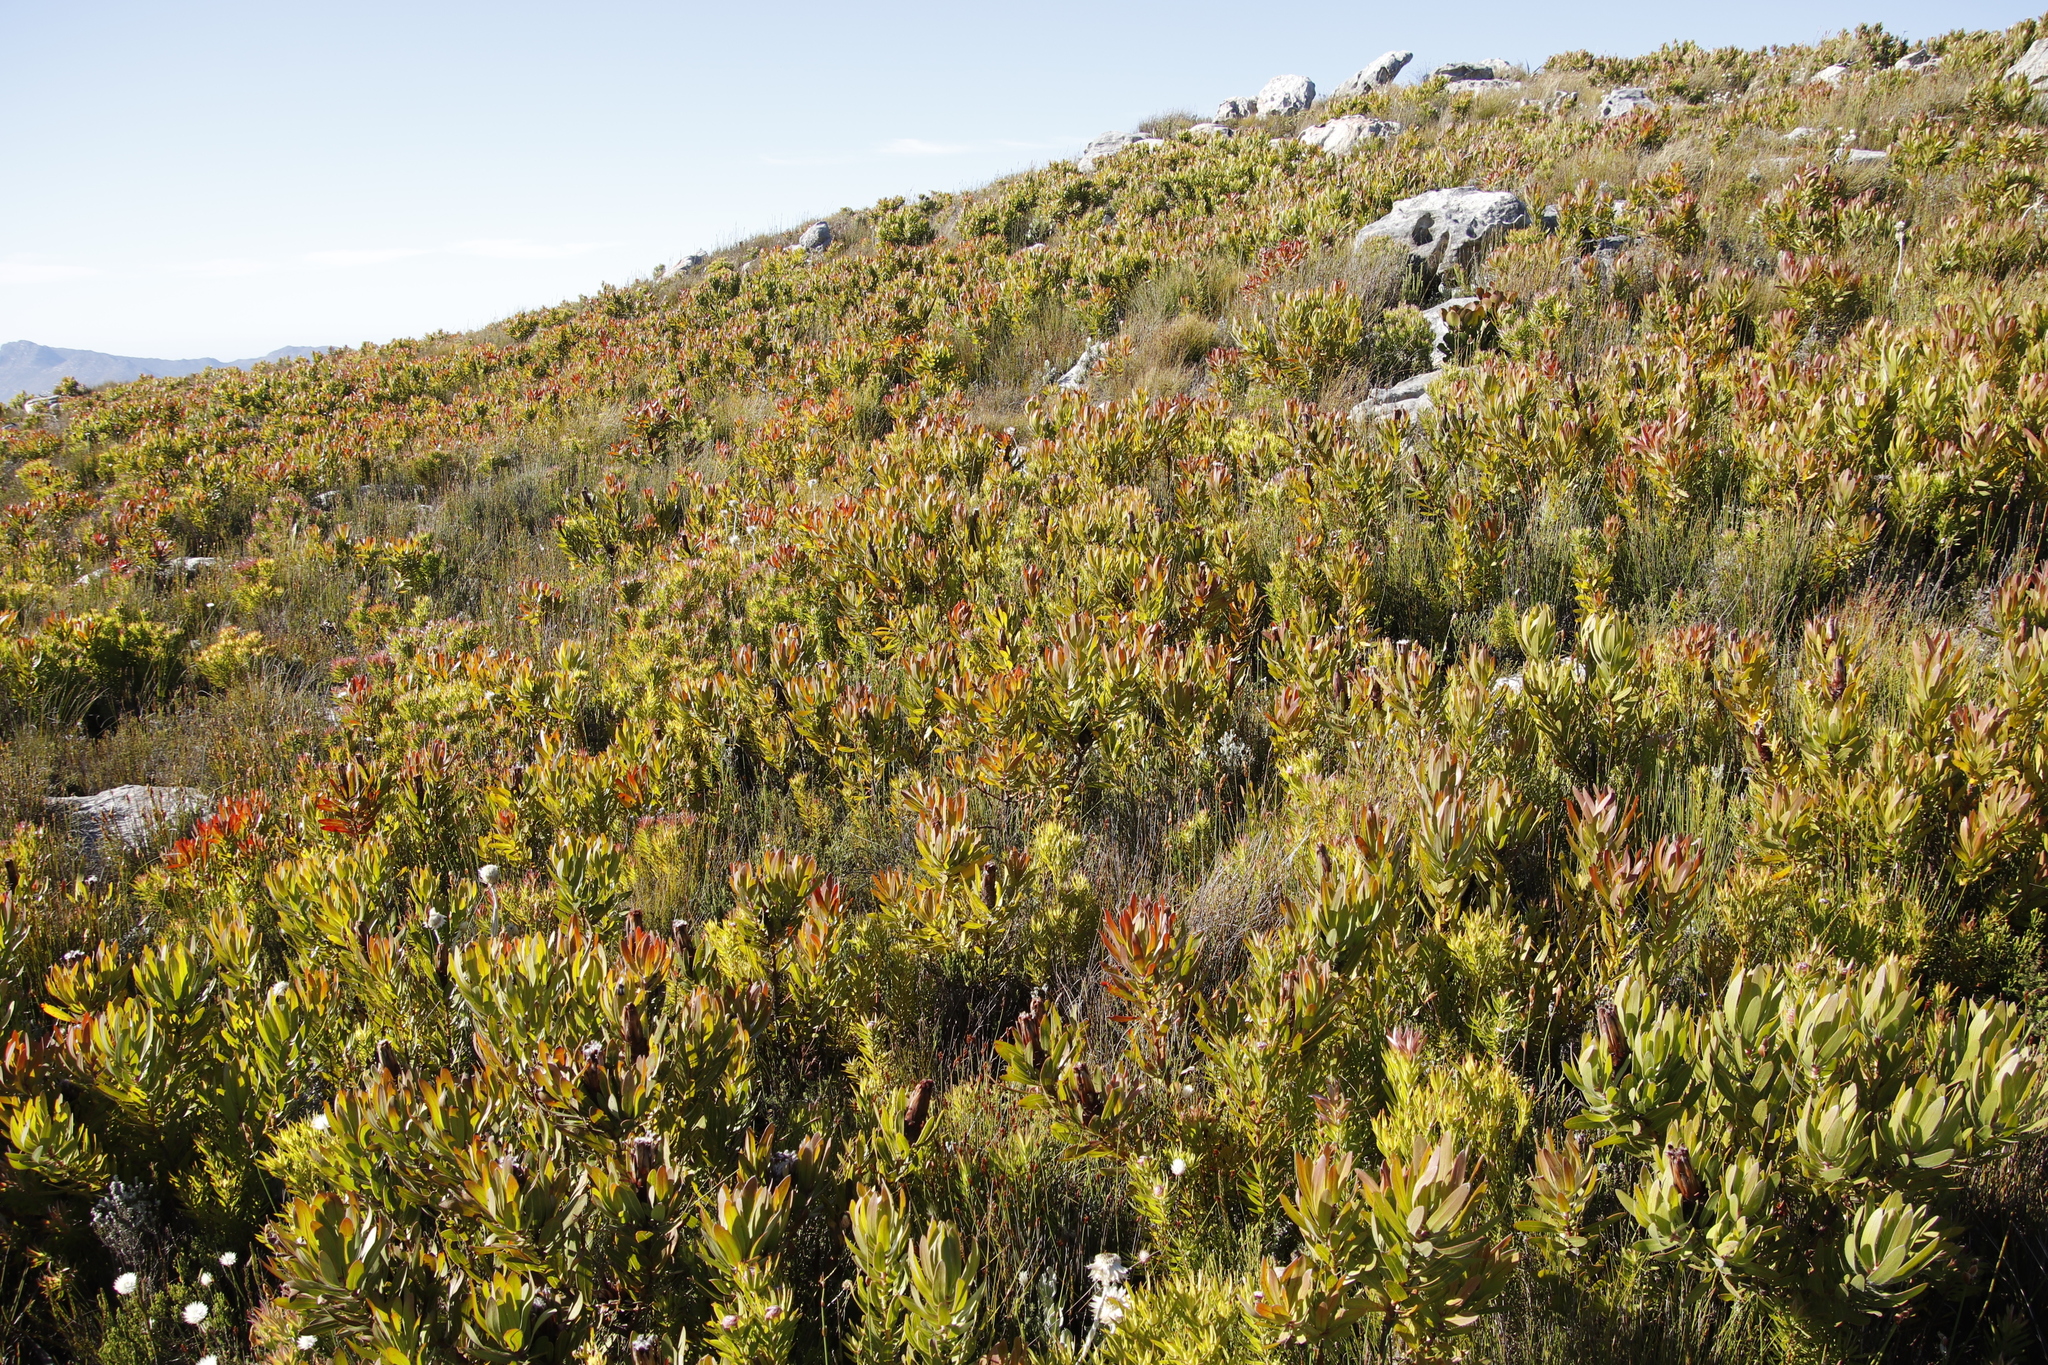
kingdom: Plantae
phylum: Tracheophyta
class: Magnoliopsida
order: Proteales
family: Proteaceae
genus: Protea
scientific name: Protea lepidocarpodendron
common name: Black-bearded protea
